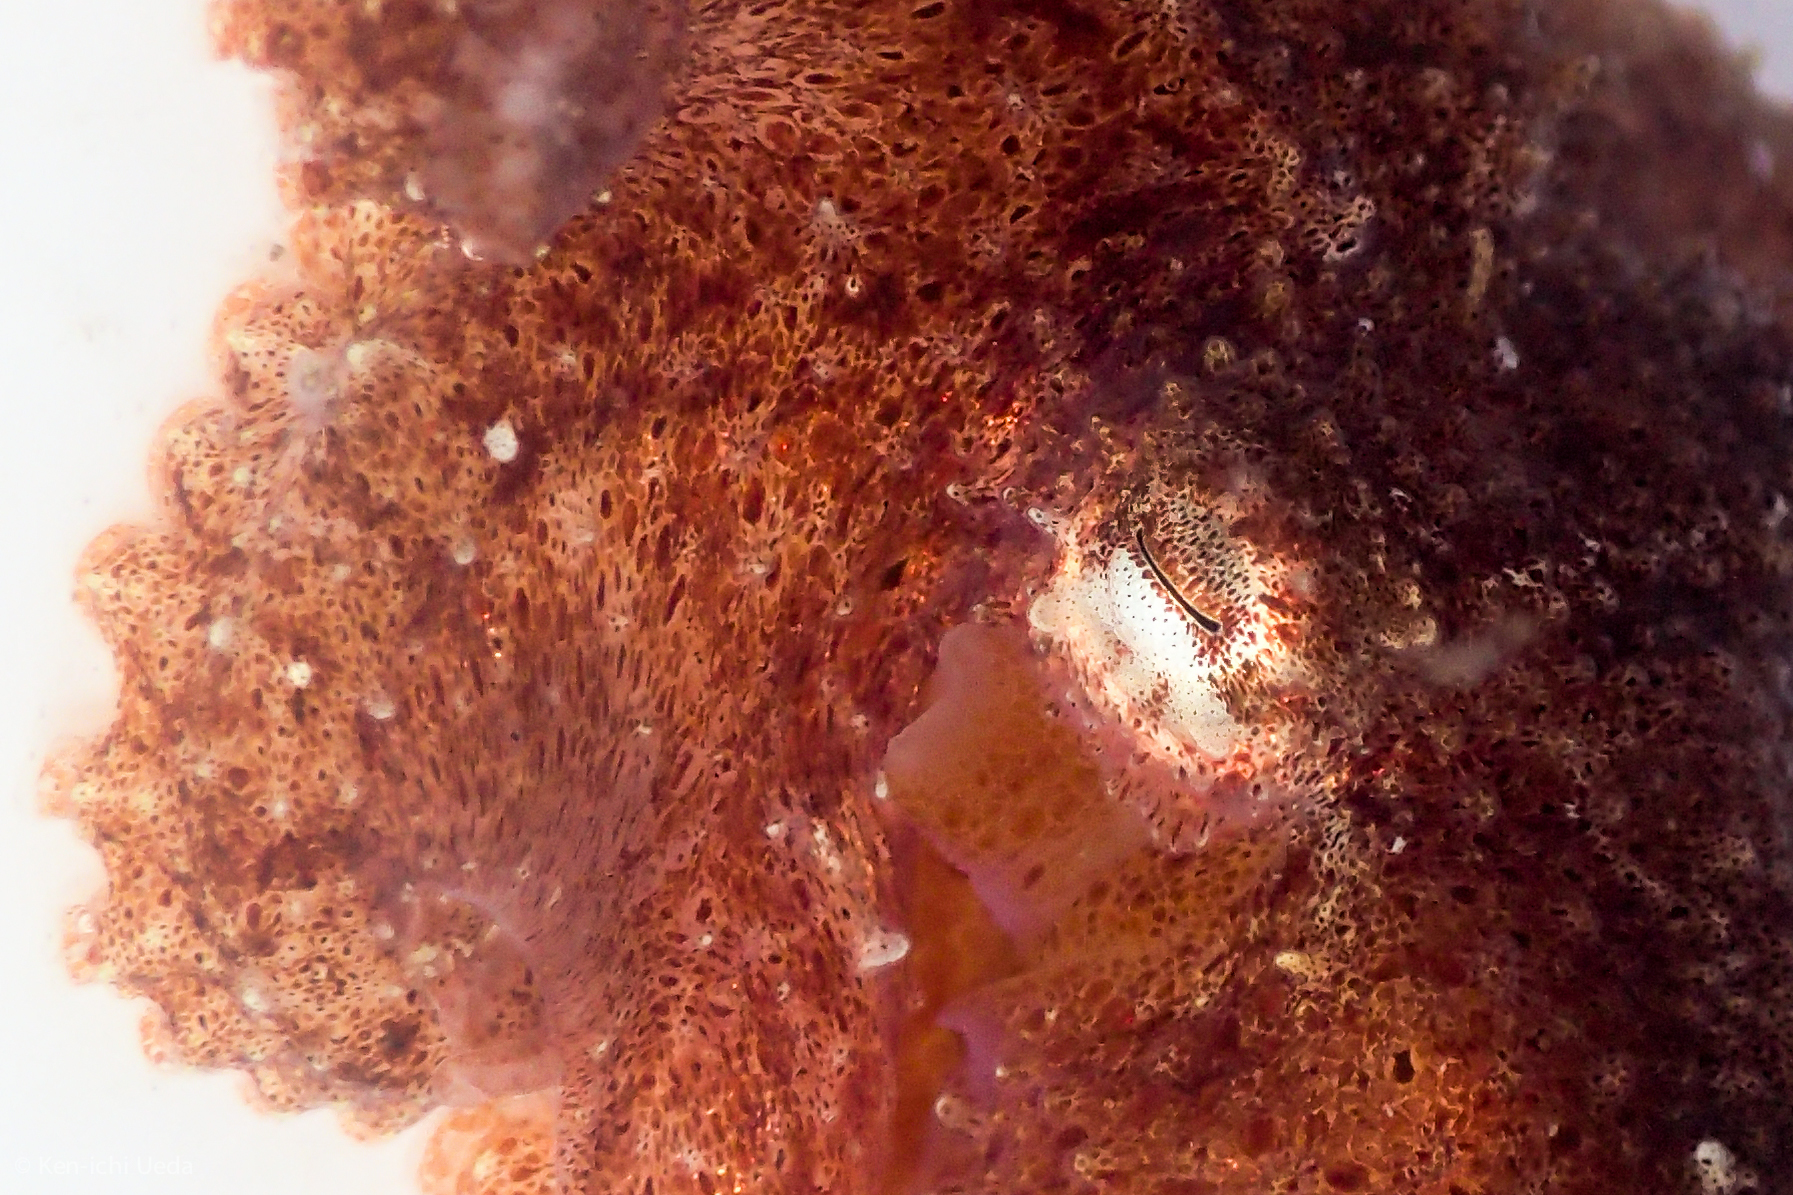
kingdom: Animalia
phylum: Mollusca
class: Cephalopoda
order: Octopoda
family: Octopodidae
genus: Octopus
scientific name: Octopus rubescens
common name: East pacific red octopus
